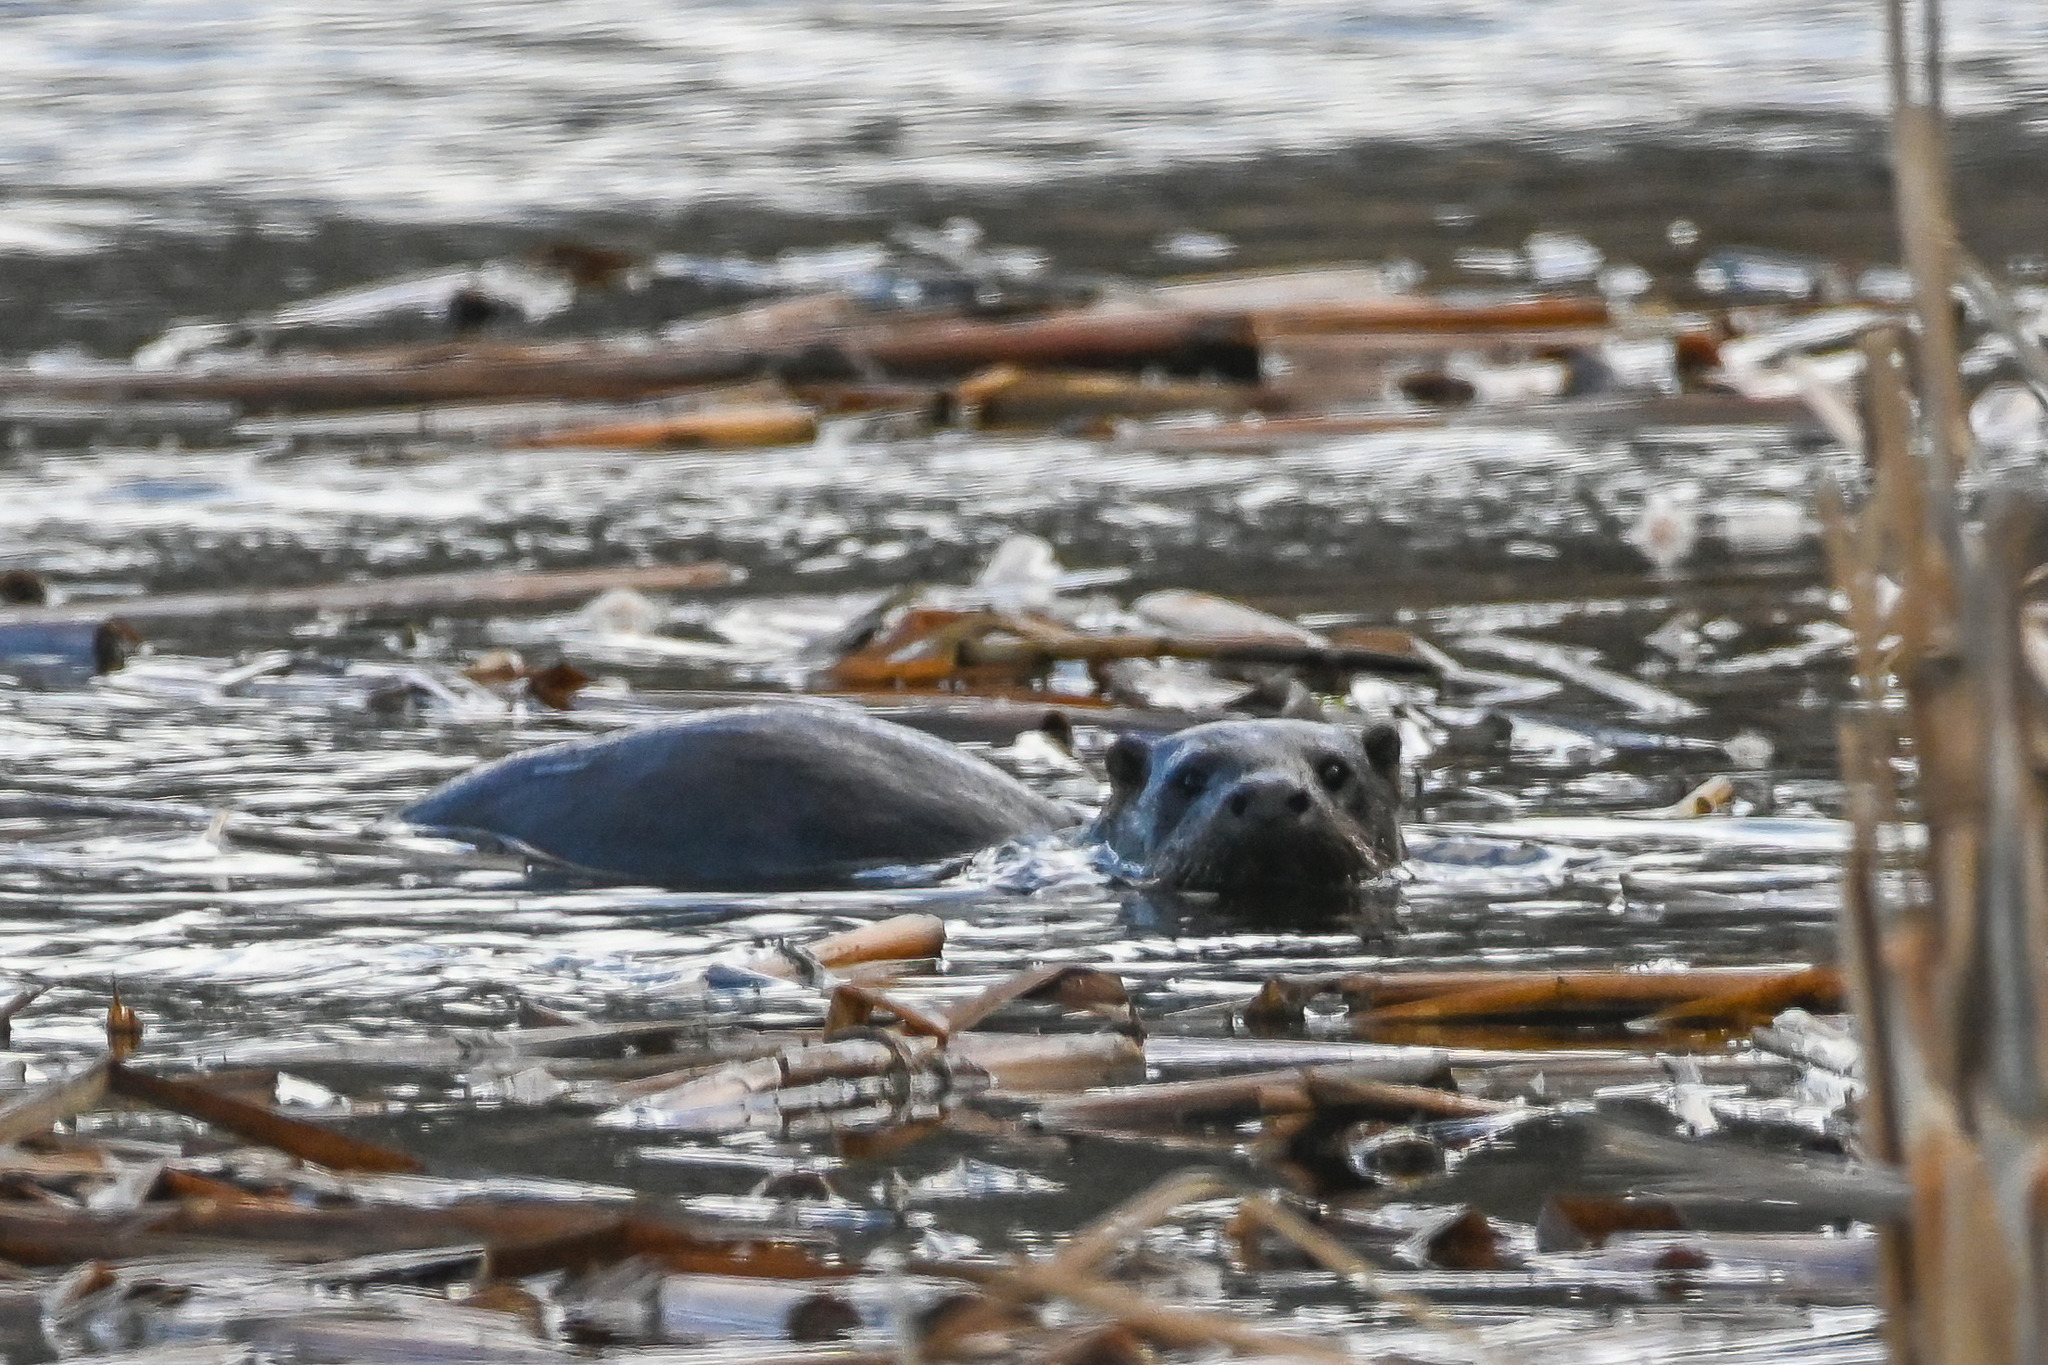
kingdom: Animalia
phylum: Chordata
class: Mammalia
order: Carnivora
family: Mustelidae
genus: Lutra
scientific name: Lutra lutra
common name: European otter
